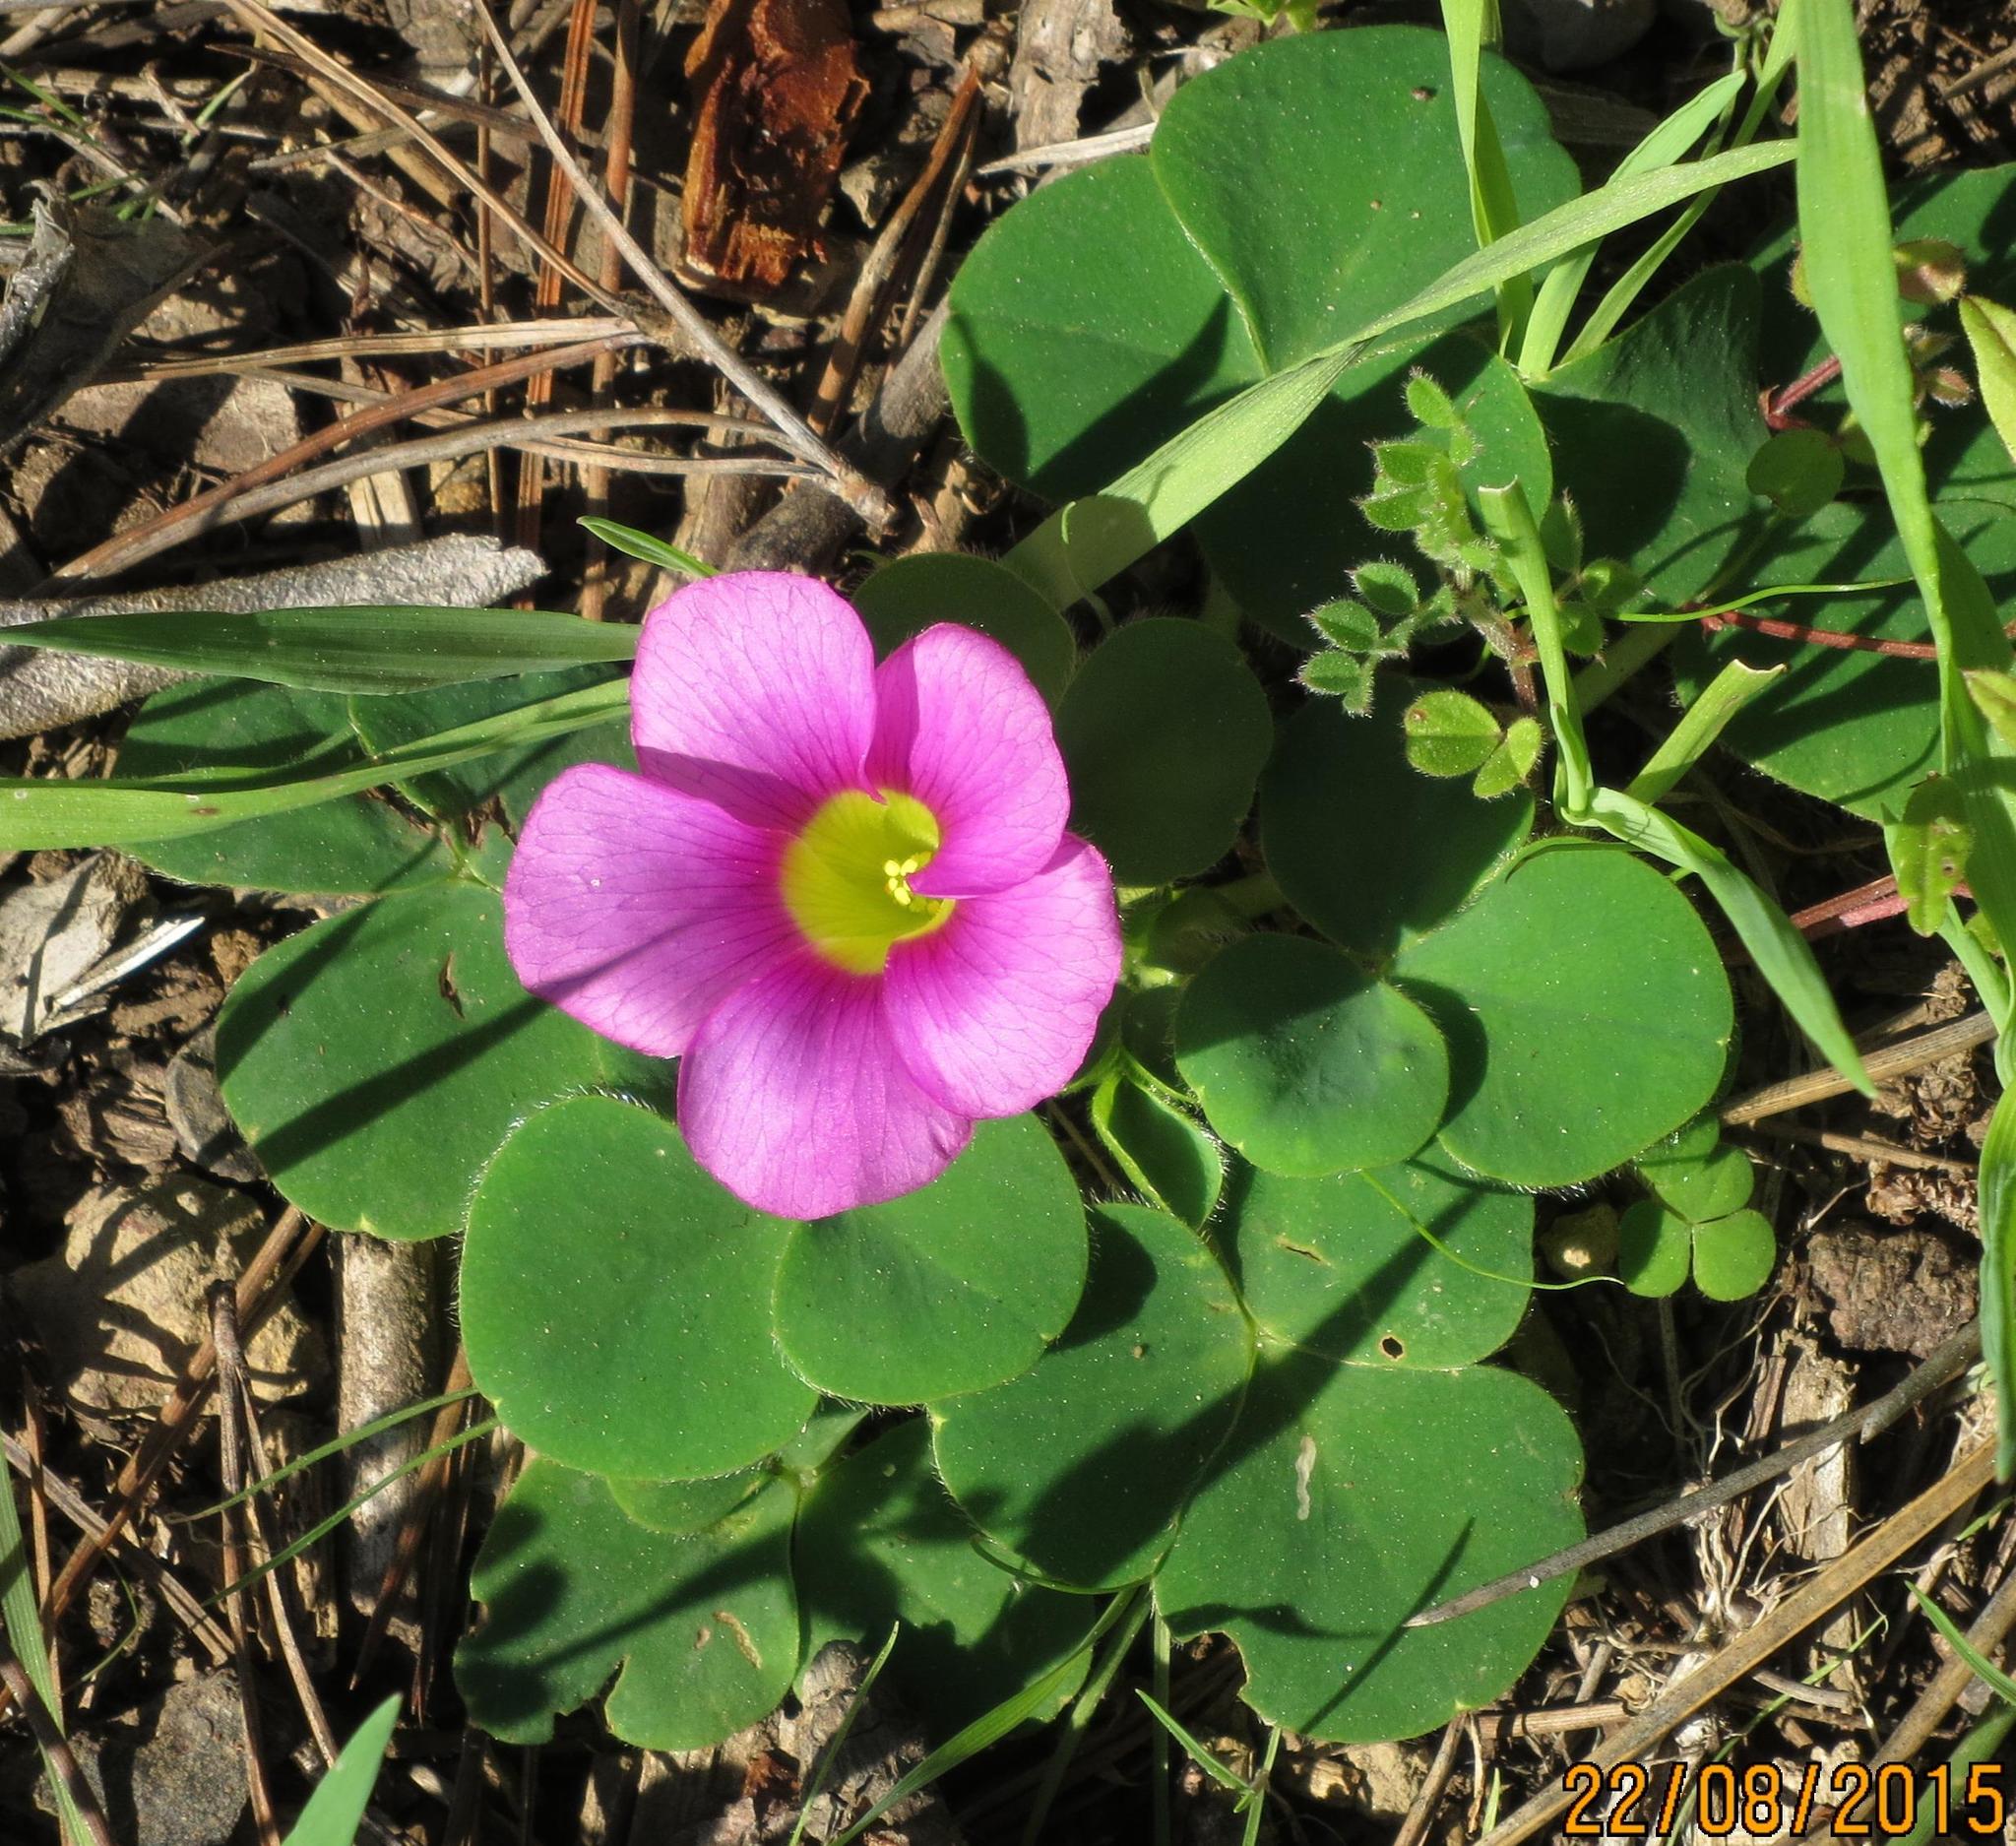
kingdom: Plantae
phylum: Tracheophyta
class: Magnoliopsida
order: Oxalidales
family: Oxalidaceae
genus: Oxalis
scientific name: Oxalis purpurea
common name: Purple woodsorrel
